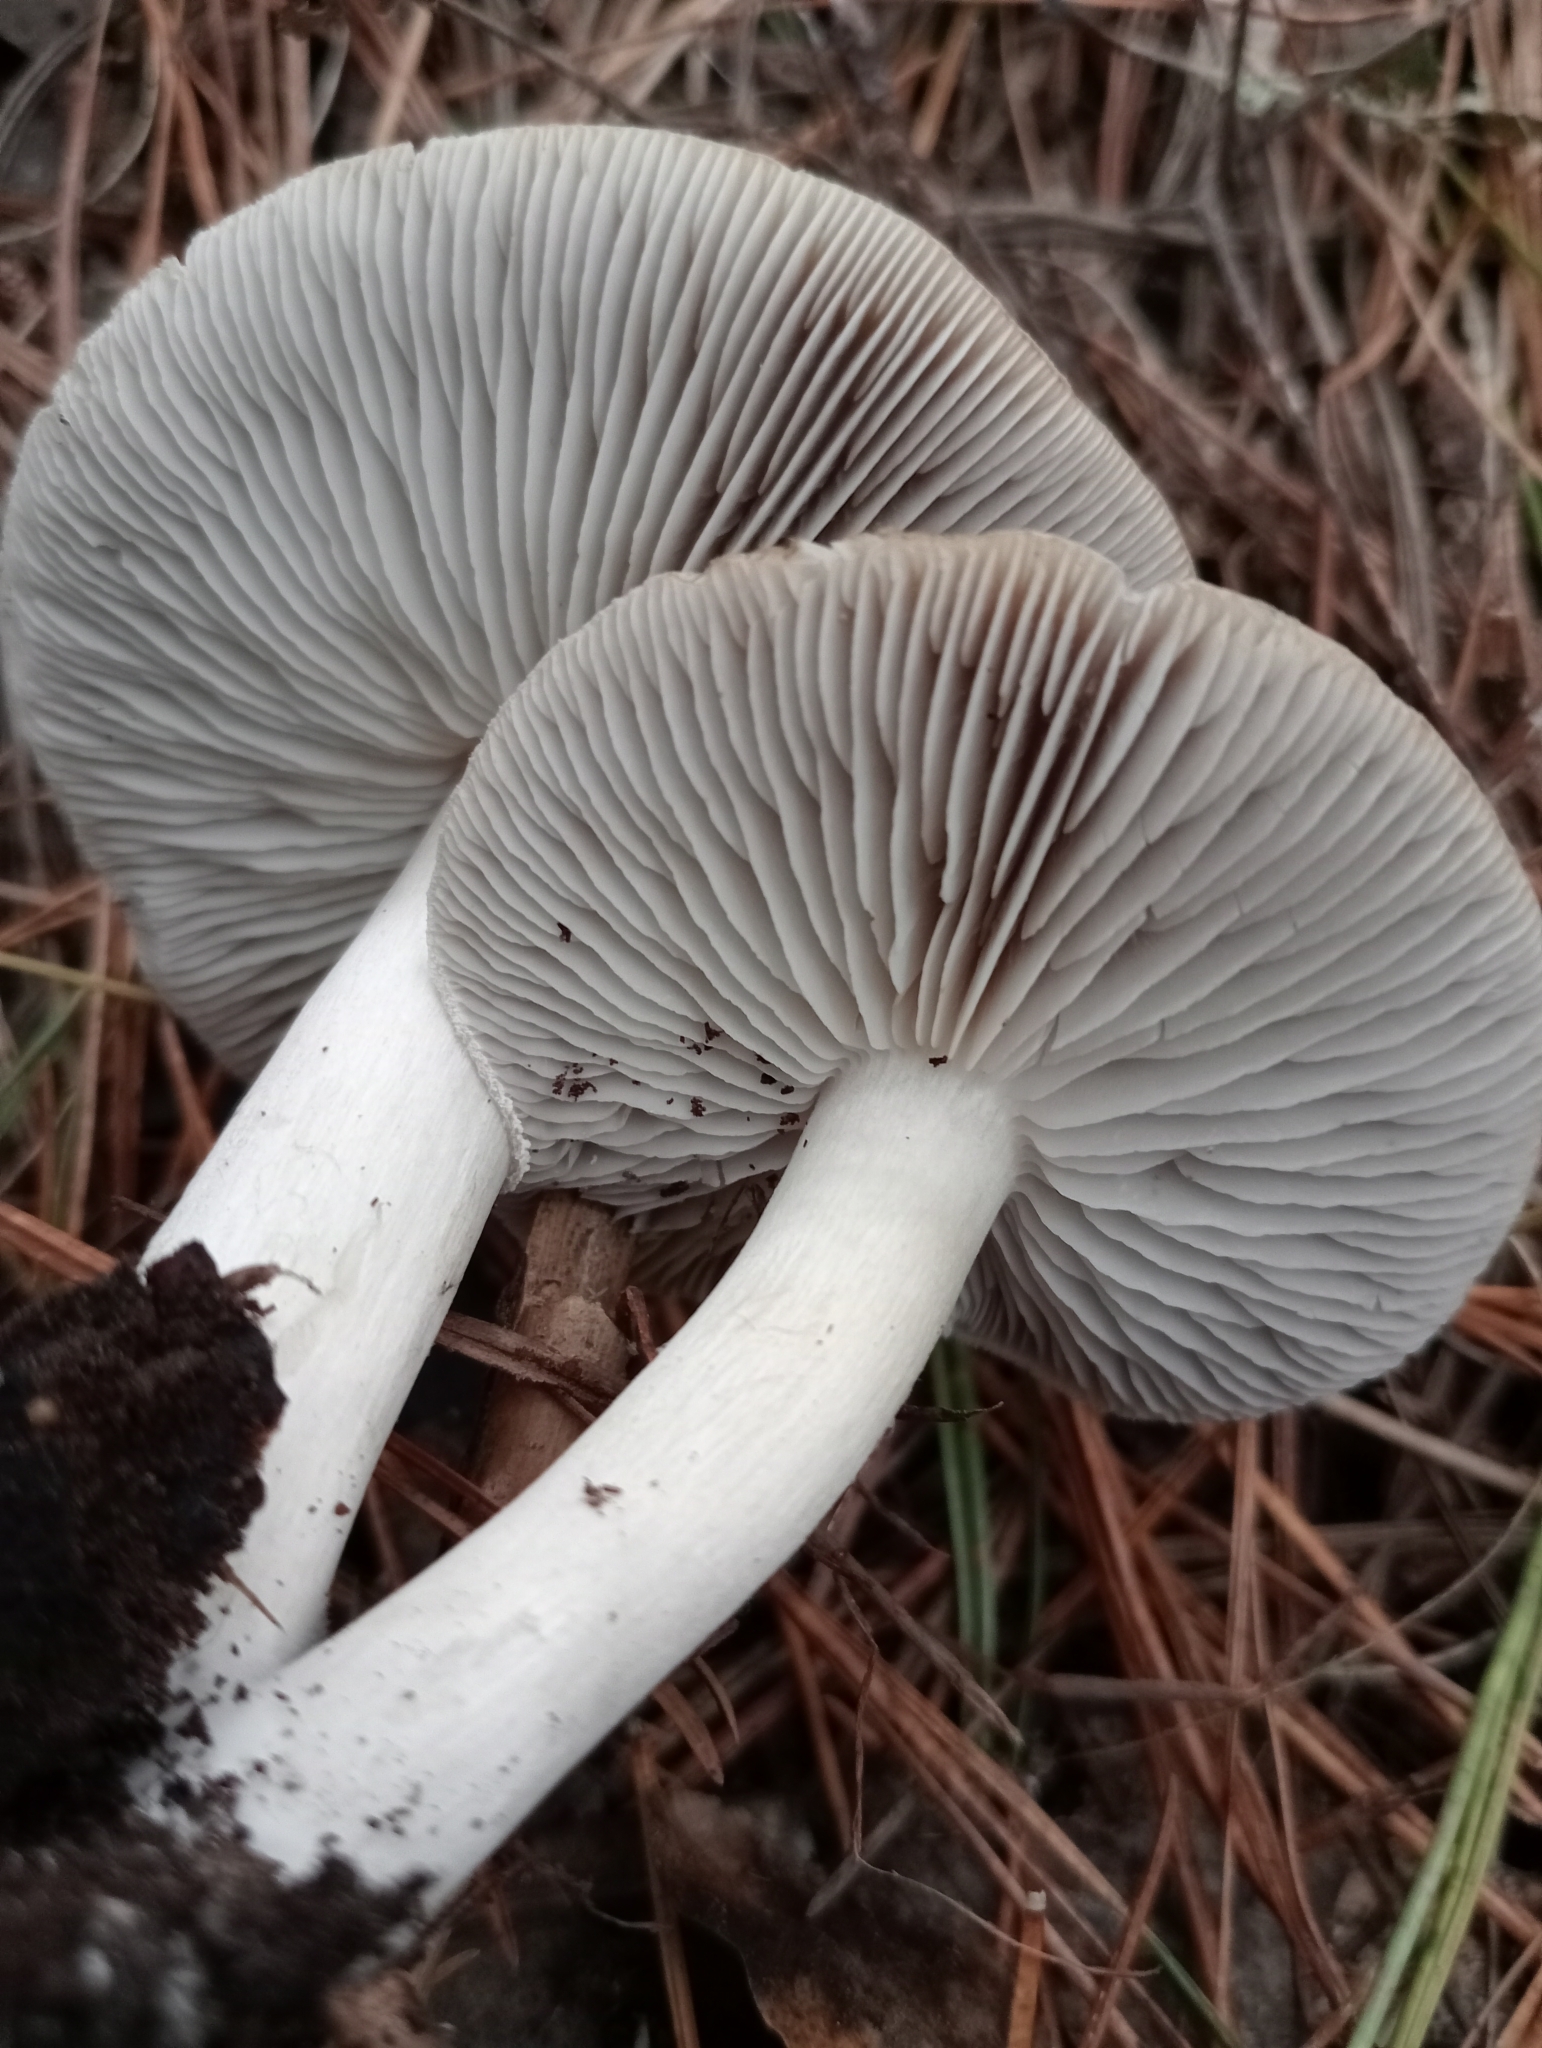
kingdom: Fungi
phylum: Basidiomycota
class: Agaricomycetes
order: Agaricales
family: Tricholomataceae
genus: Tricholoma
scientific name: Tricholoma terreum
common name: Grey knight
